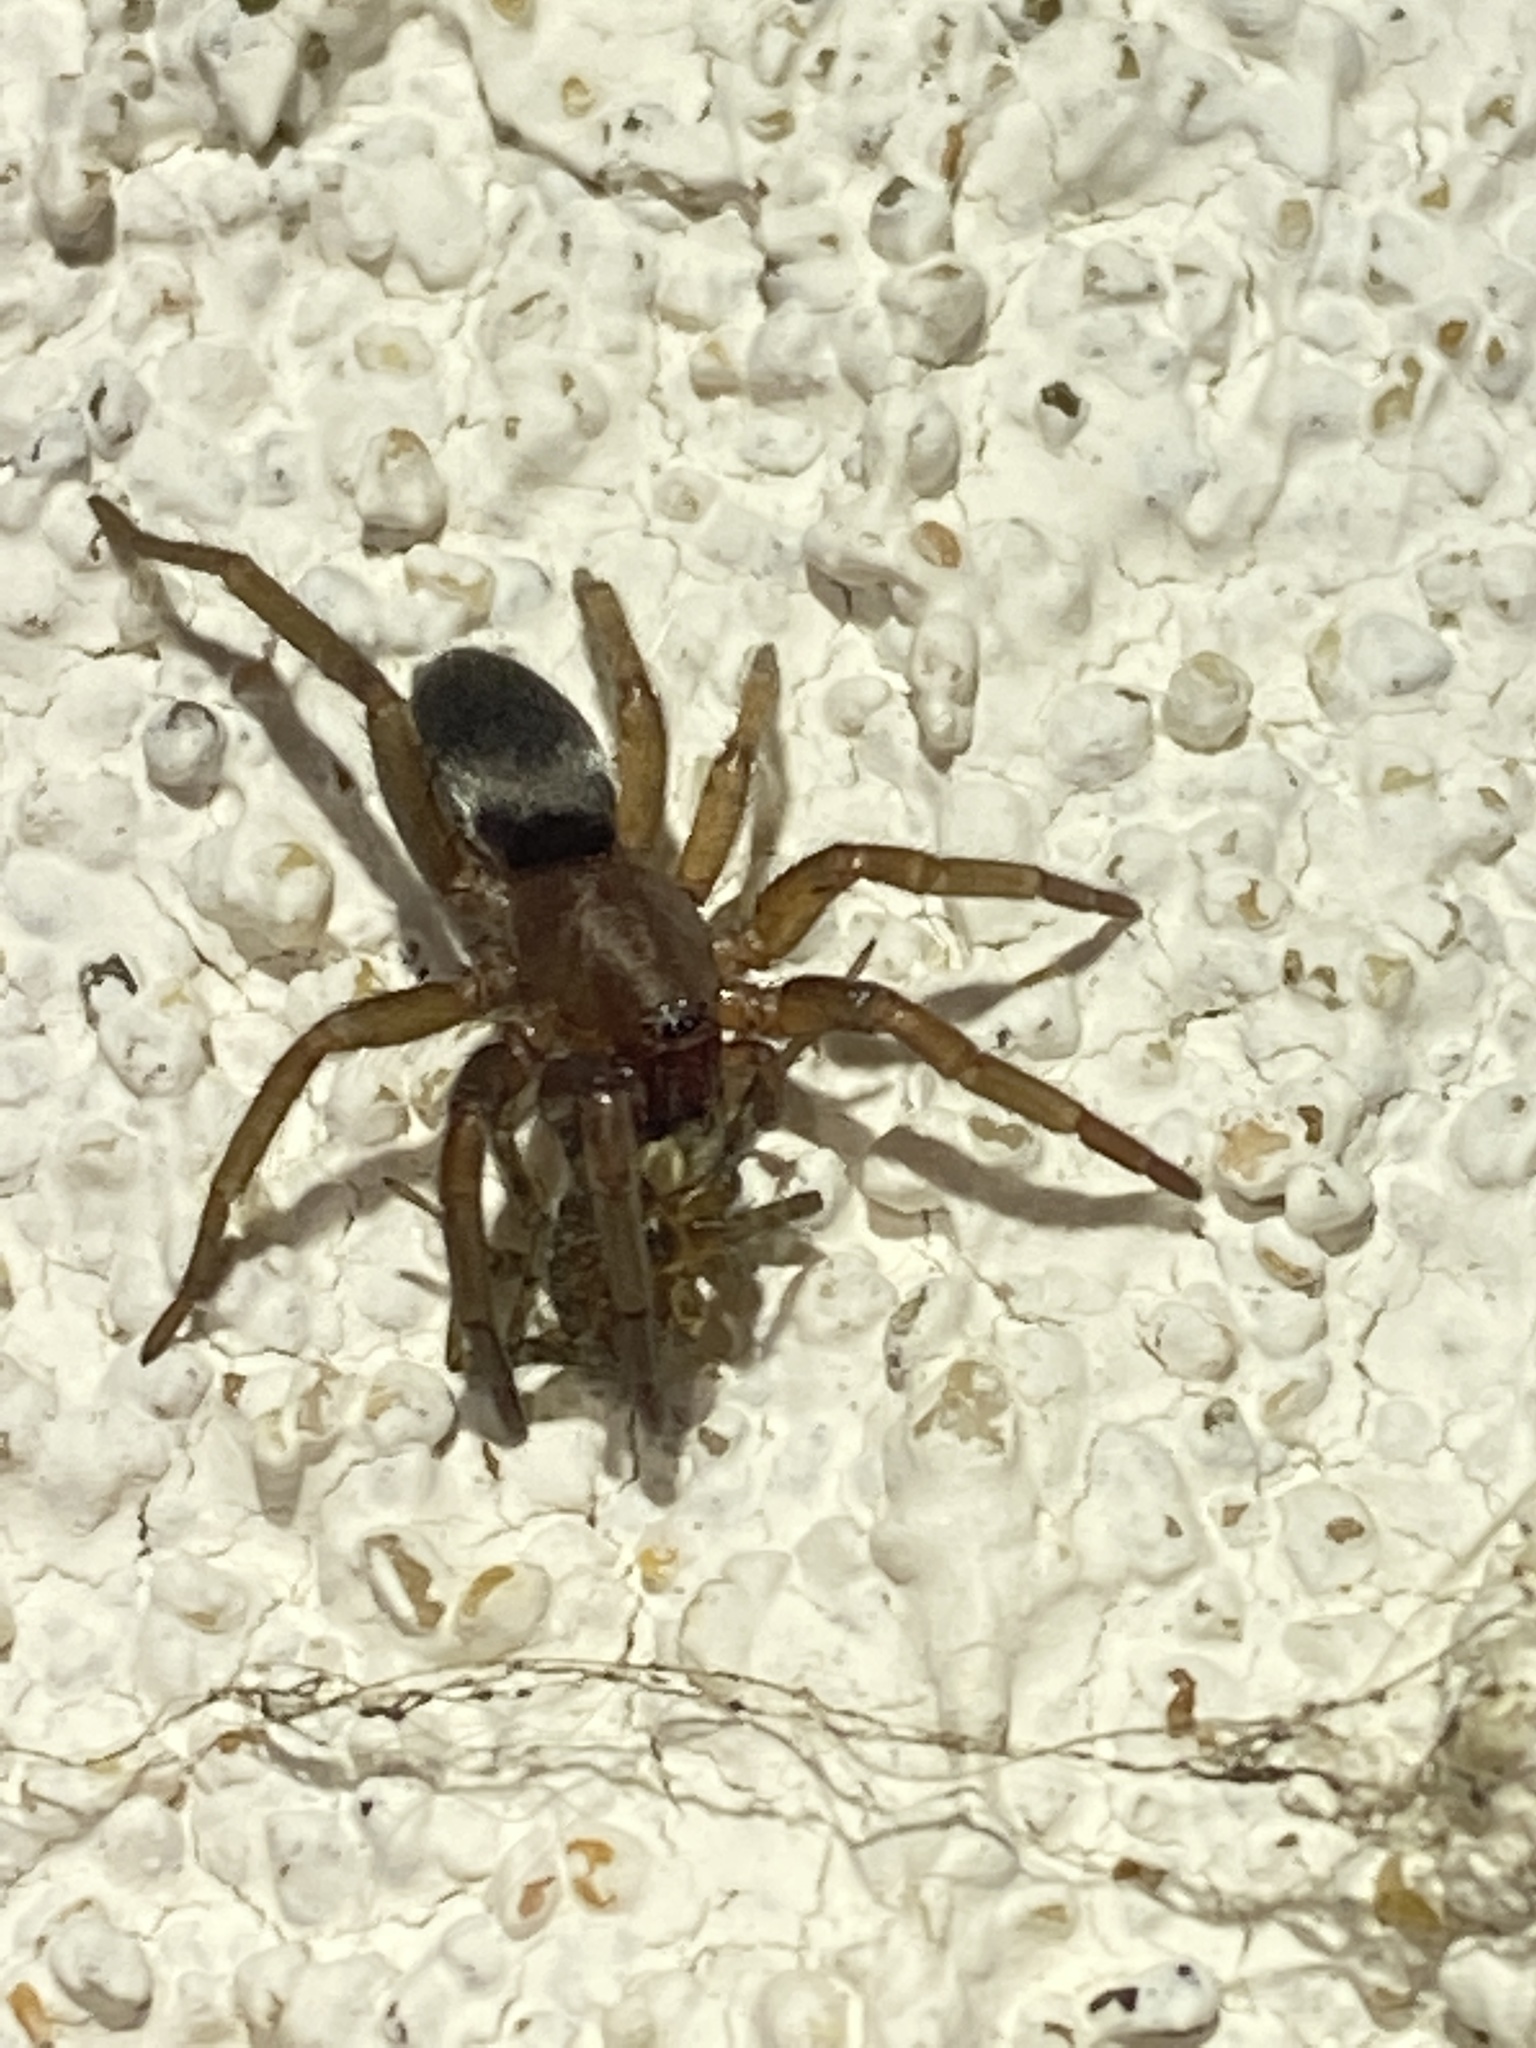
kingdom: Animalia
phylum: Arthropoda
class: Arachnida
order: Araneae
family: Gnaphosidae
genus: Scotophaeus
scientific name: Scotophaeus blackwalli
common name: Mouse spider
